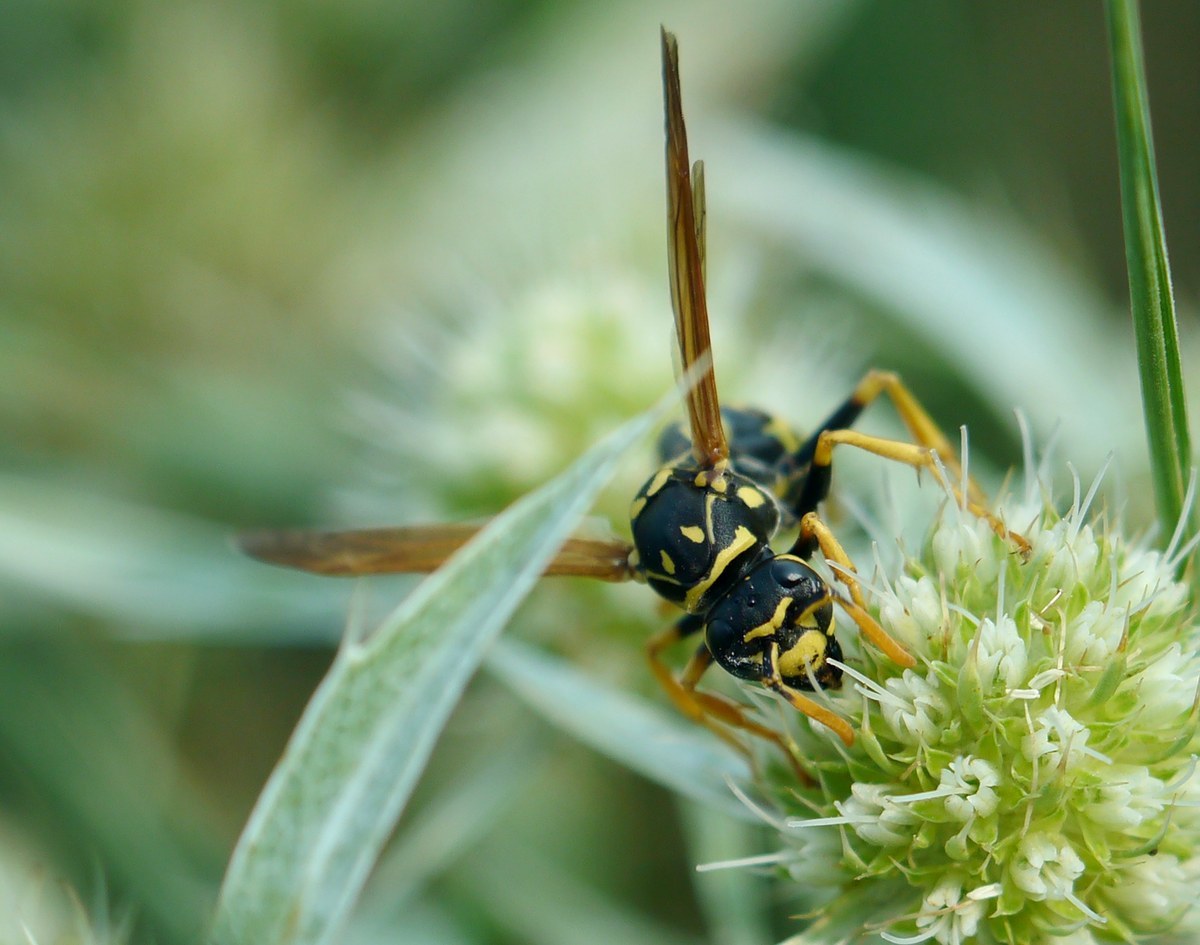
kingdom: Animalia
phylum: Arthropoda
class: Insecta
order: Hymenoptera
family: Eumenidae
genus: Polistes
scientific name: Polistes dominula
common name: Paper wasp
